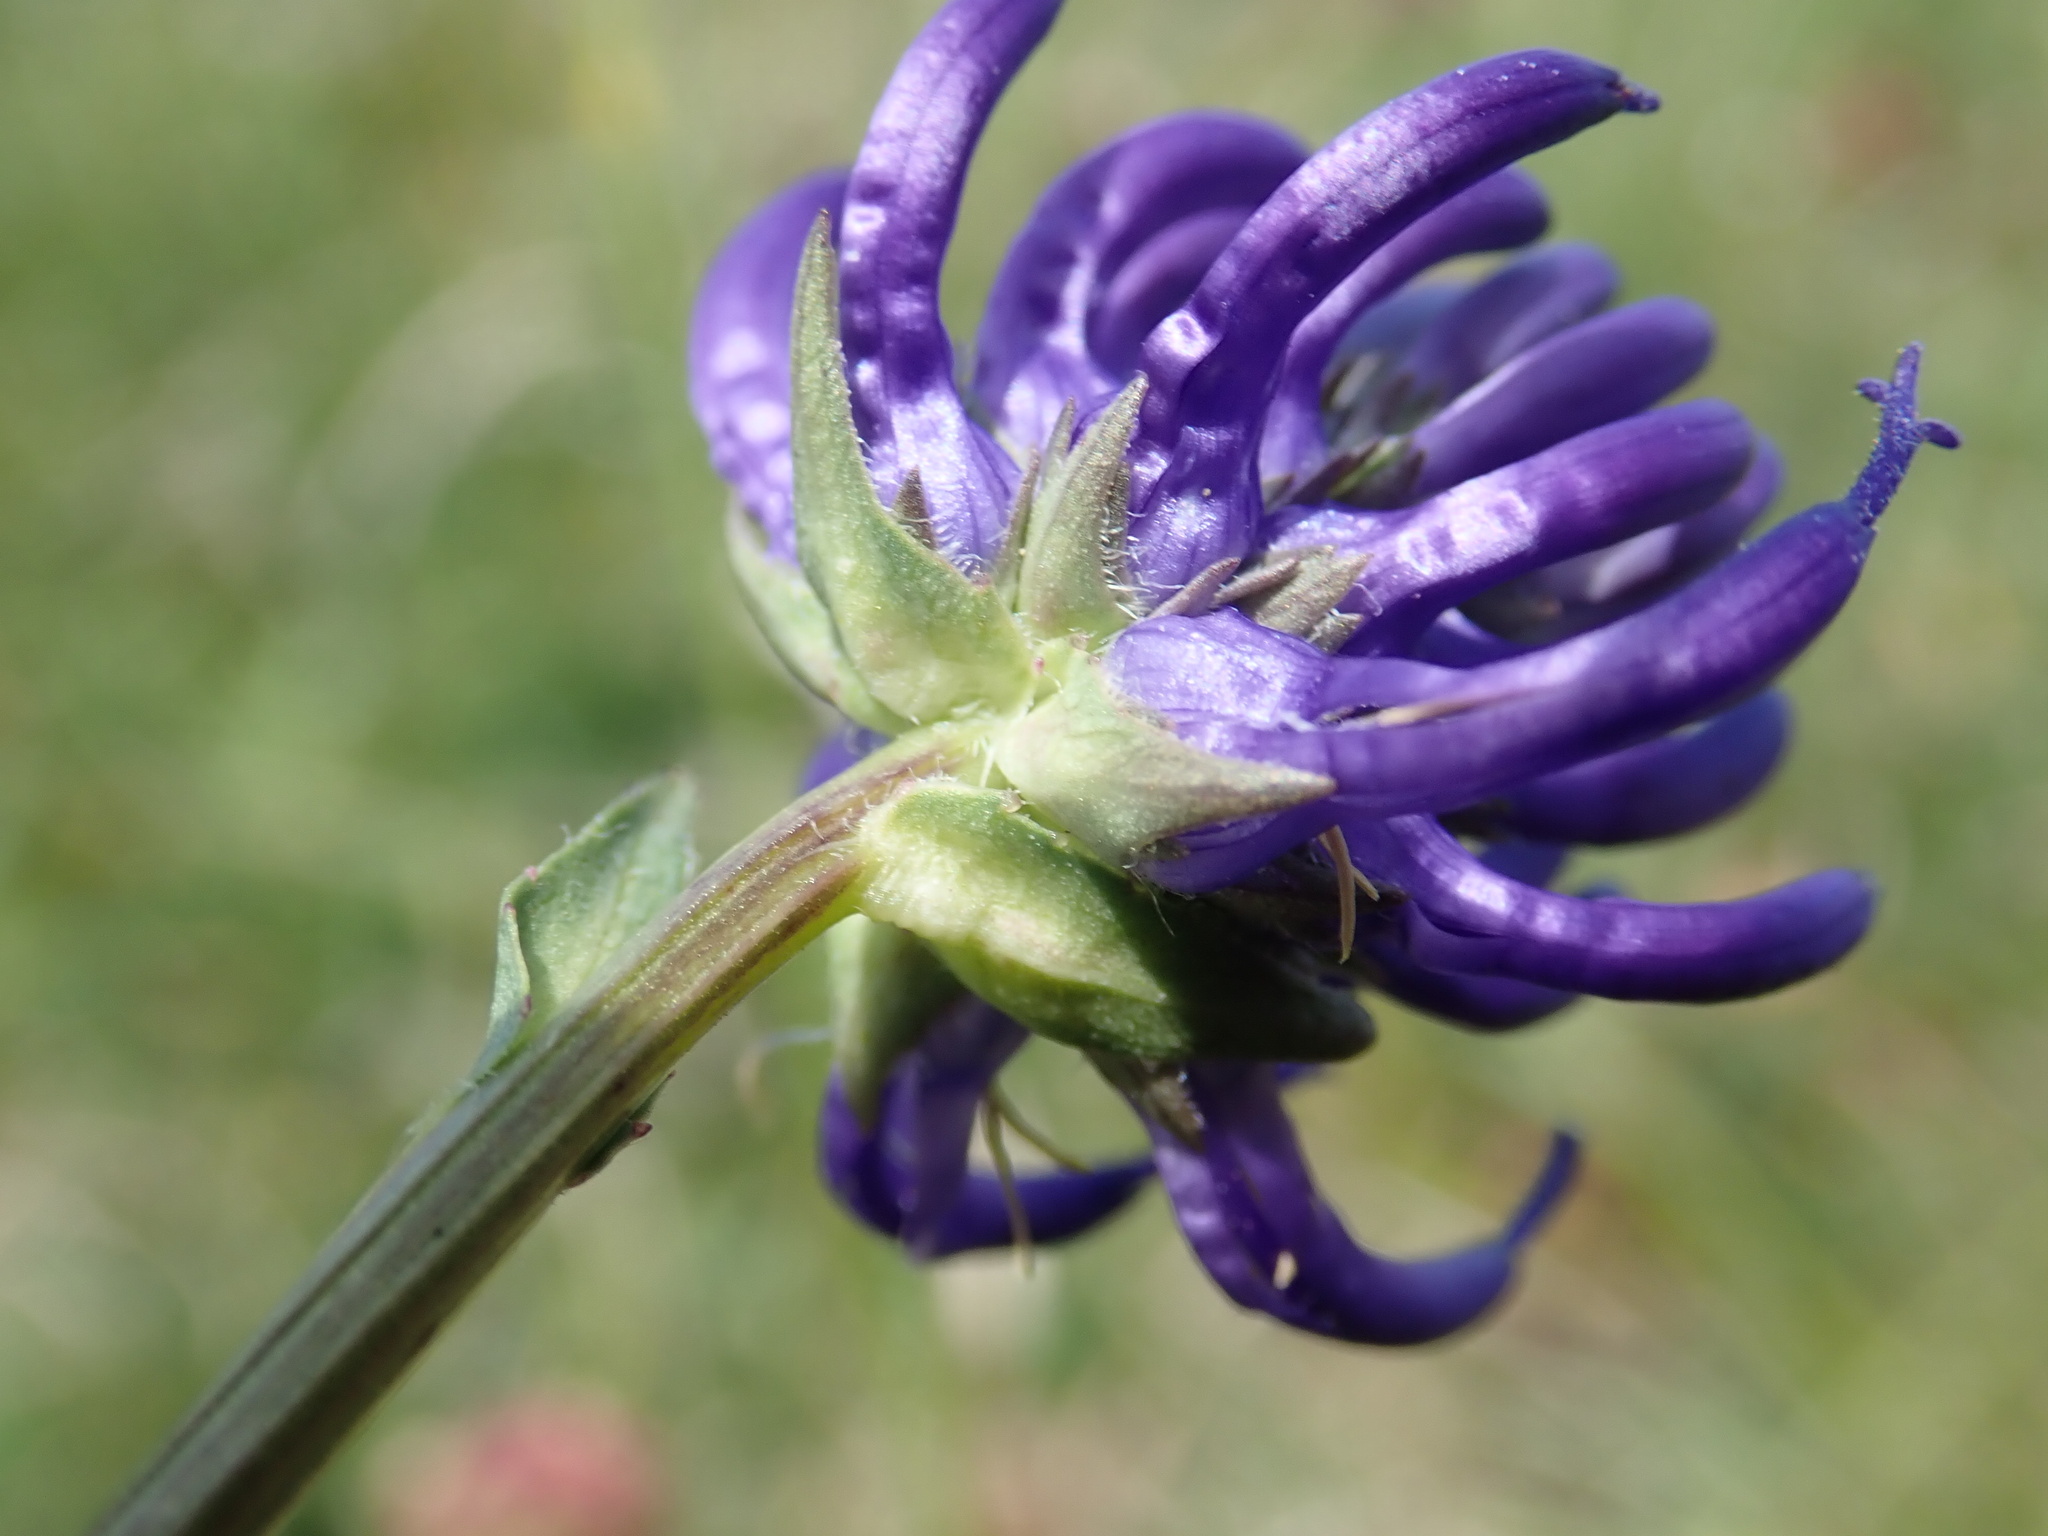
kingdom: Plantae
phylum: Tracheophyta
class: Magnoliopsida
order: Asterales
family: Campanulaceae
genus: Phyteuma
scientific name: Phyteuma orbiculare
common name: Round-headed rampion
